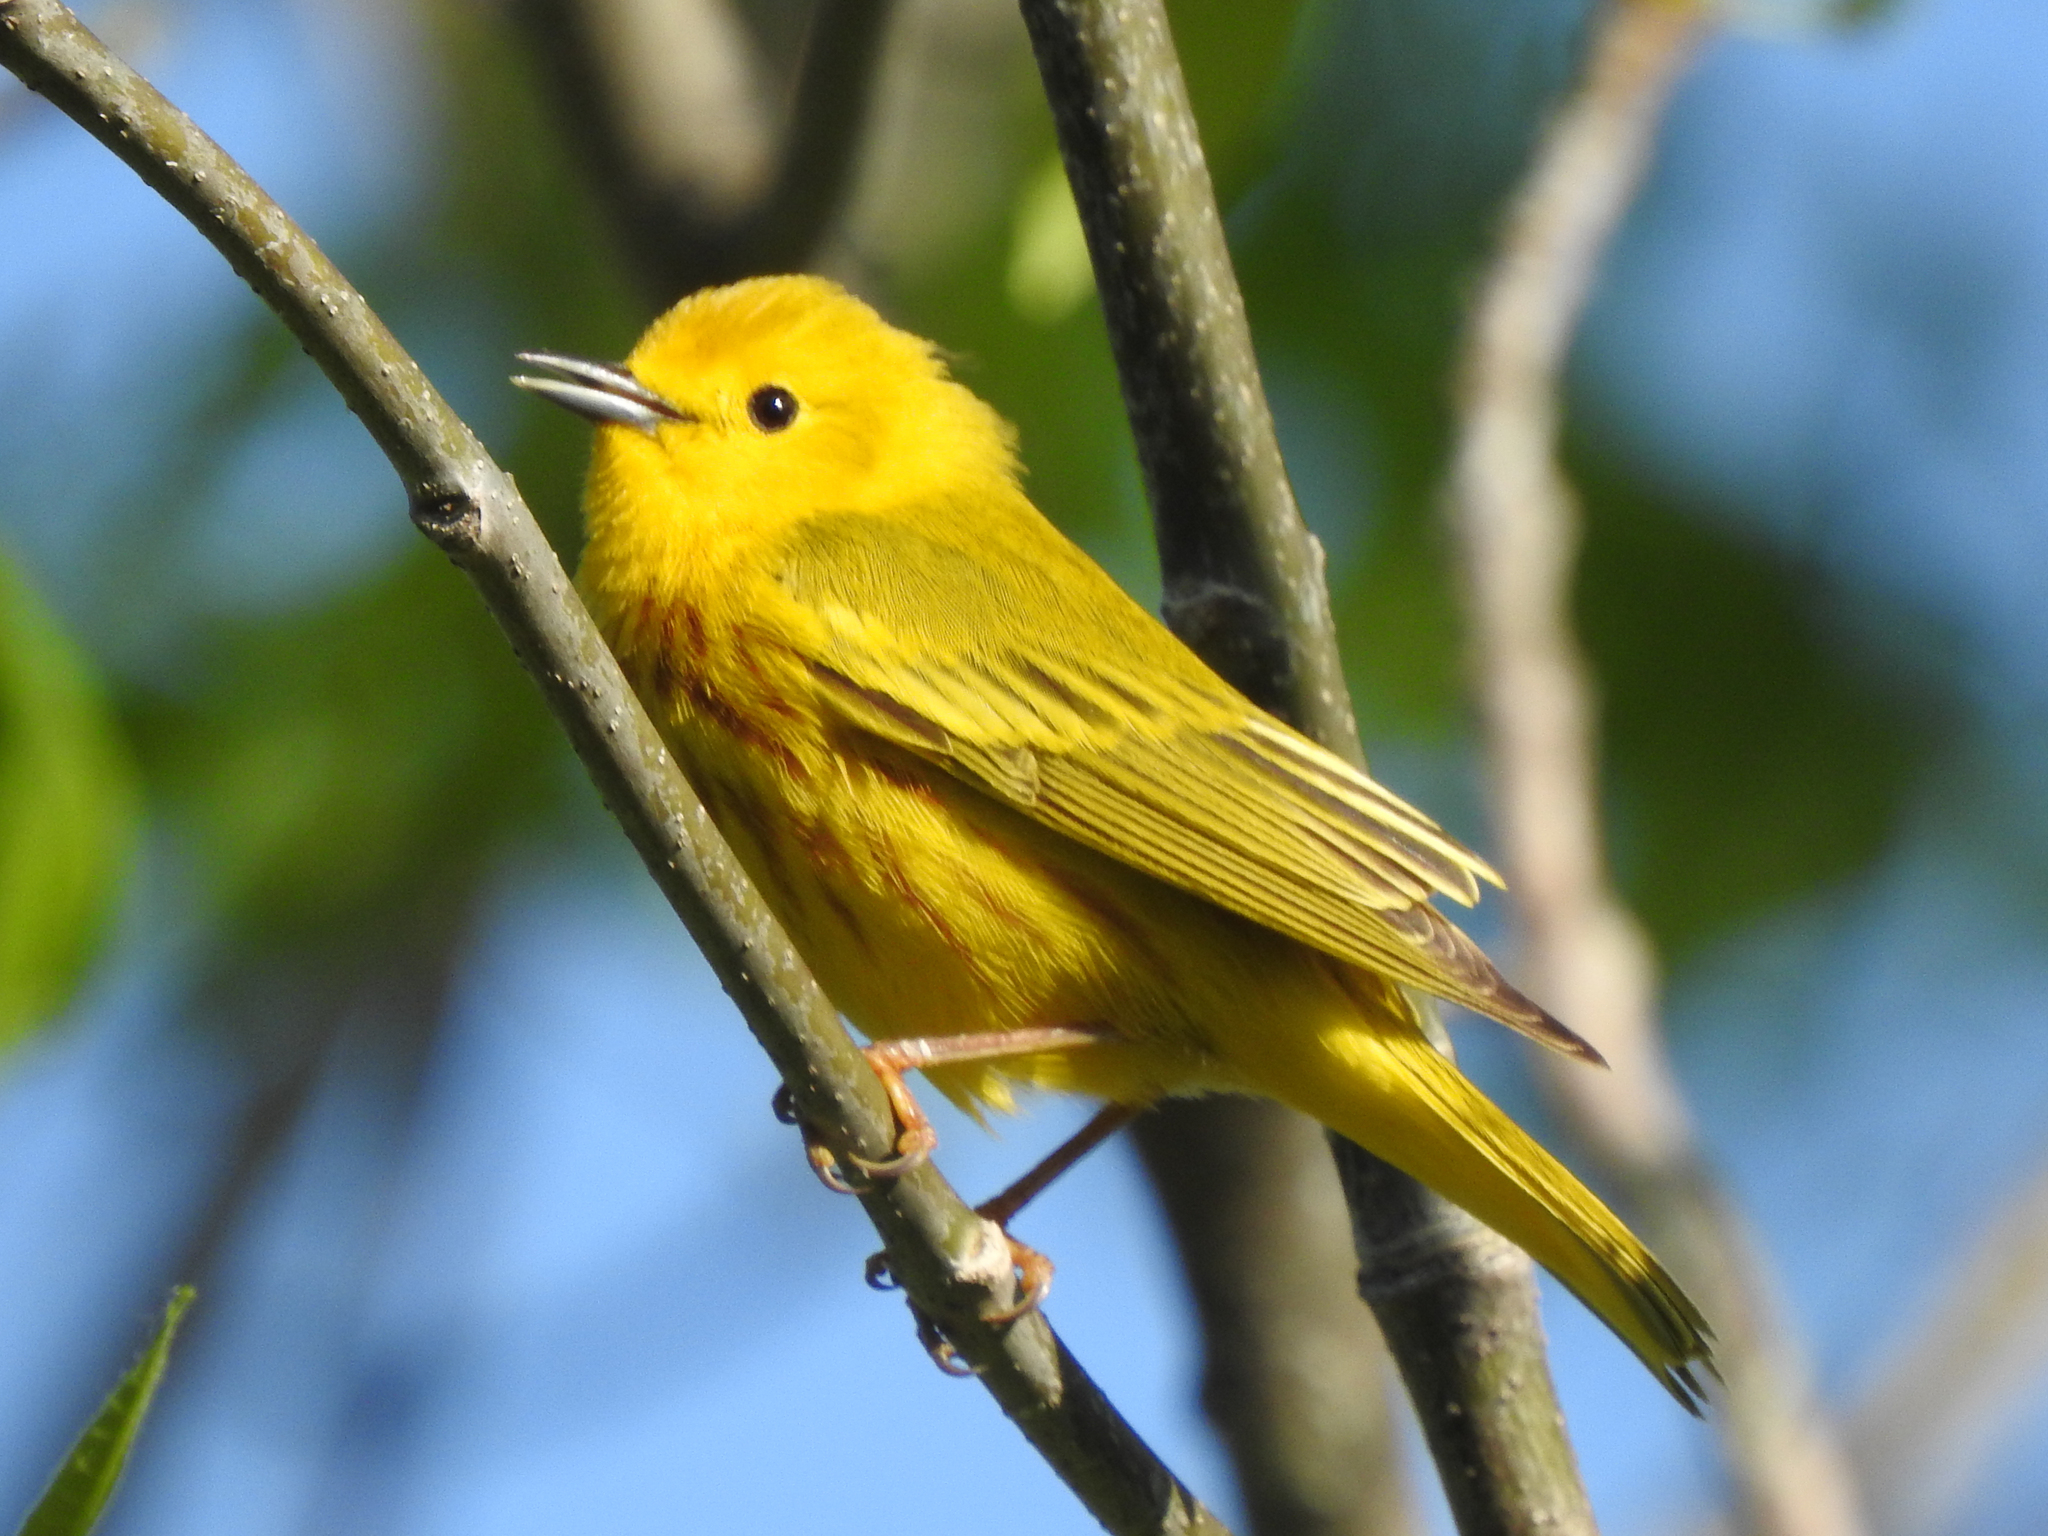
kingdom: Animalia
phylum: Chordata
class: Aves
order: Passeriformes
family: Parulidae
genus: Setophaga
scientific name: Setophaga petechia
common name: Yellow warbler
